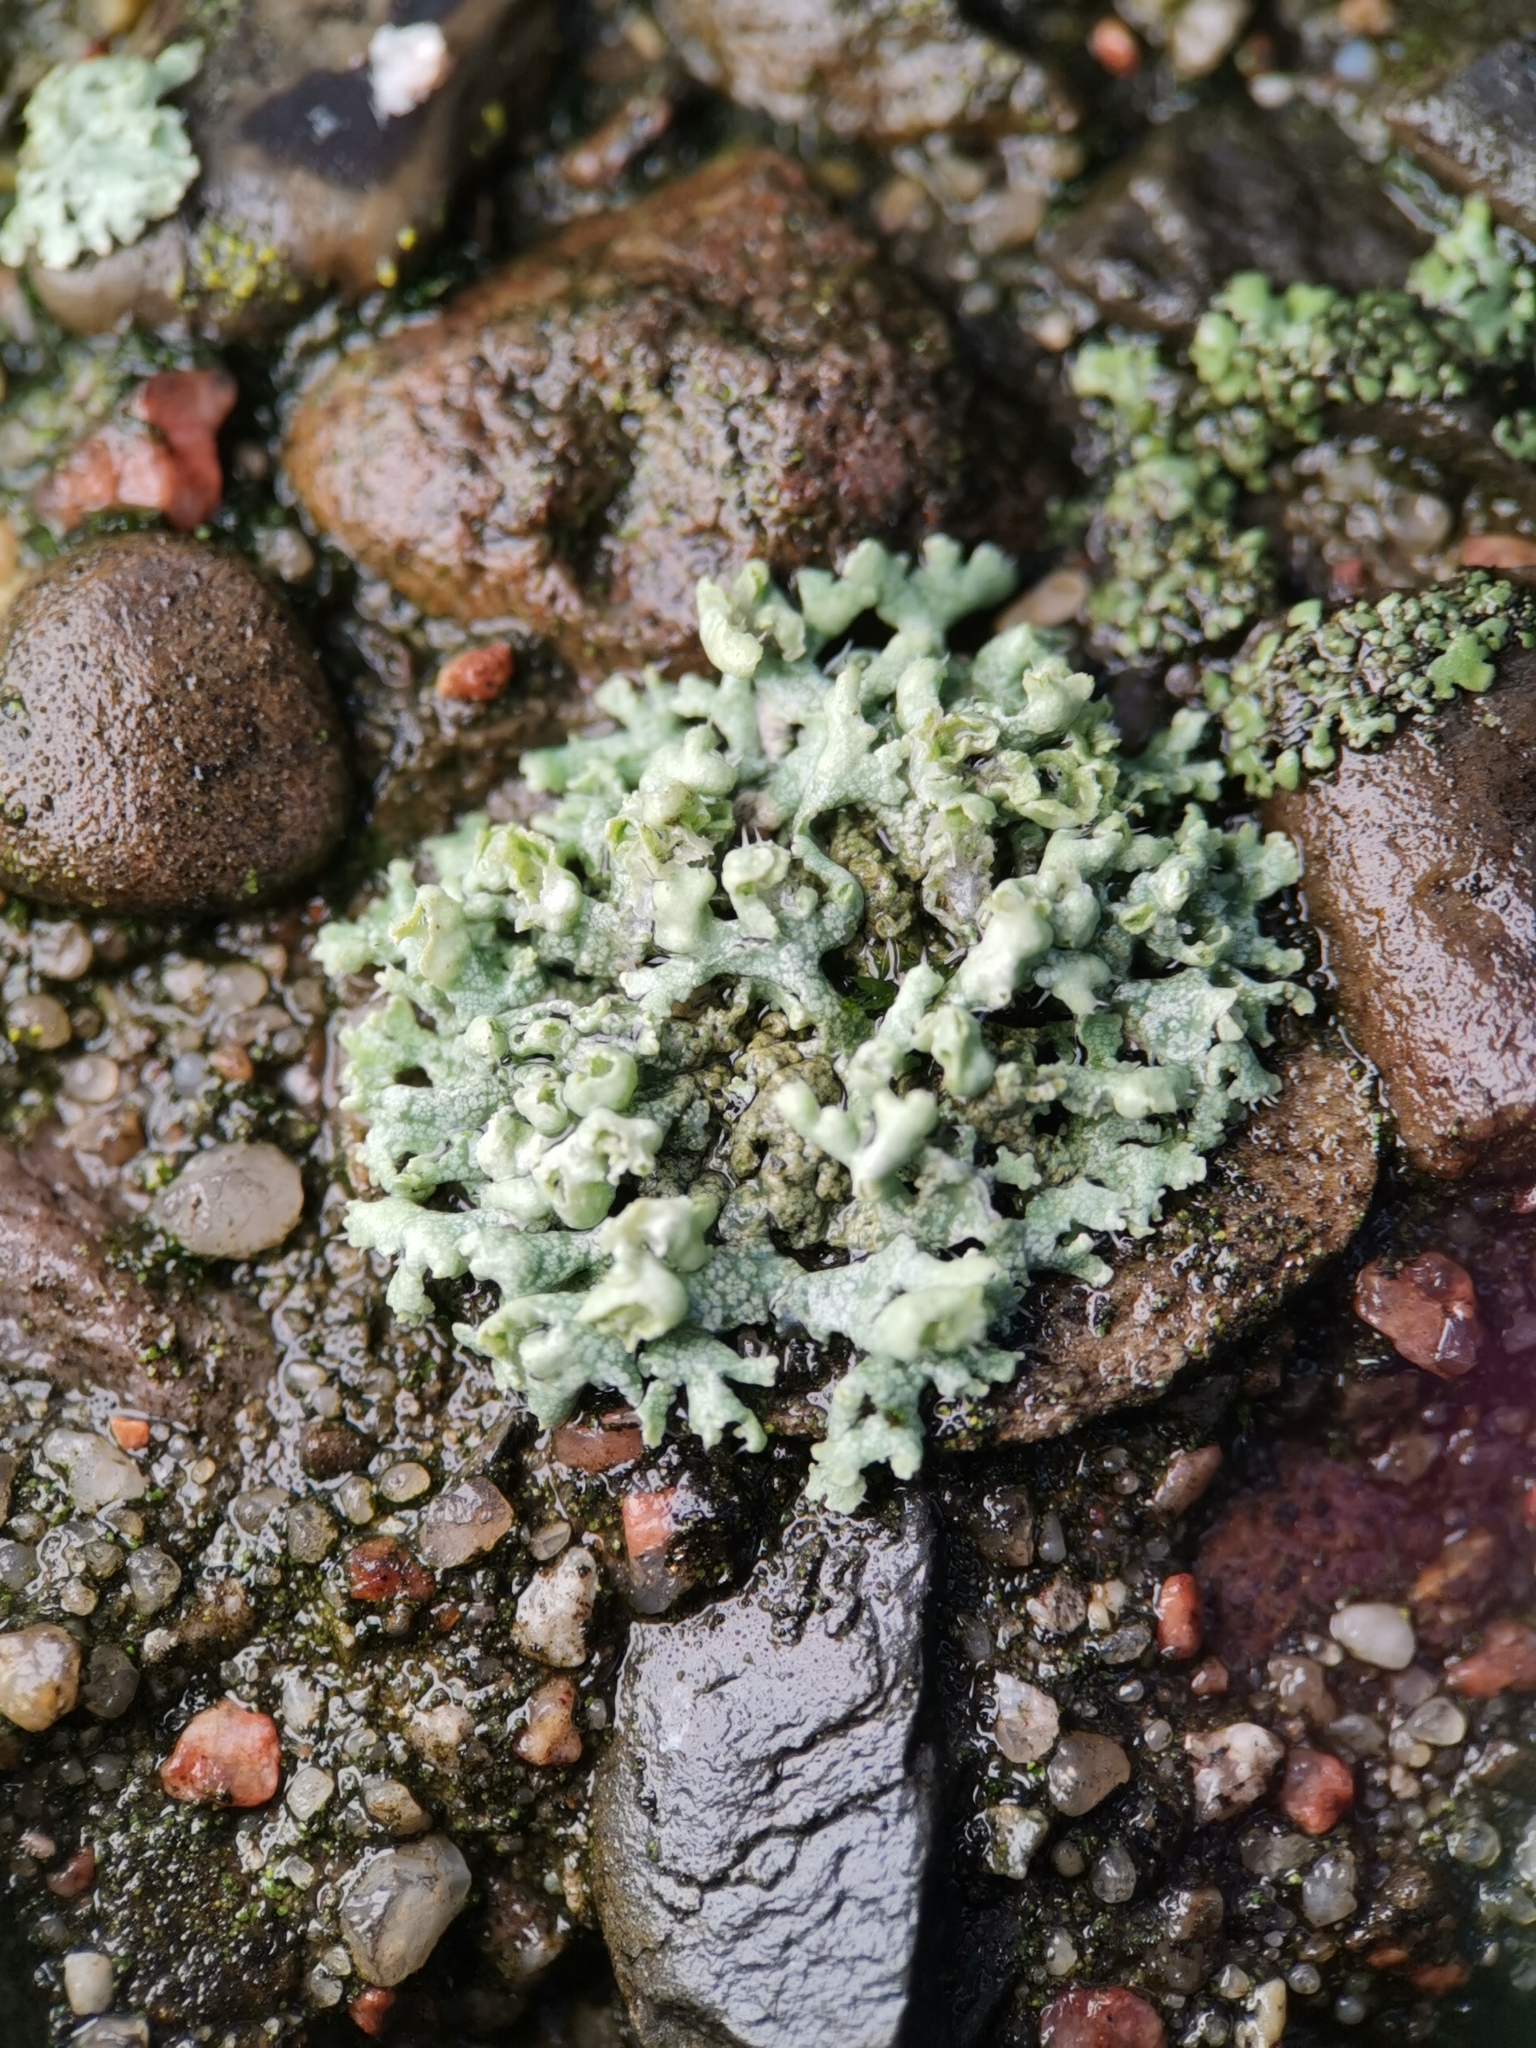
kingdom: Fungi
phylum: Ascomycota
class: Lecanoromycetes
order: Caliciales
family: Physciaceae
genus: Physcia
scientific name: Physcia adscendens
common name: Hooded rosette lichen
